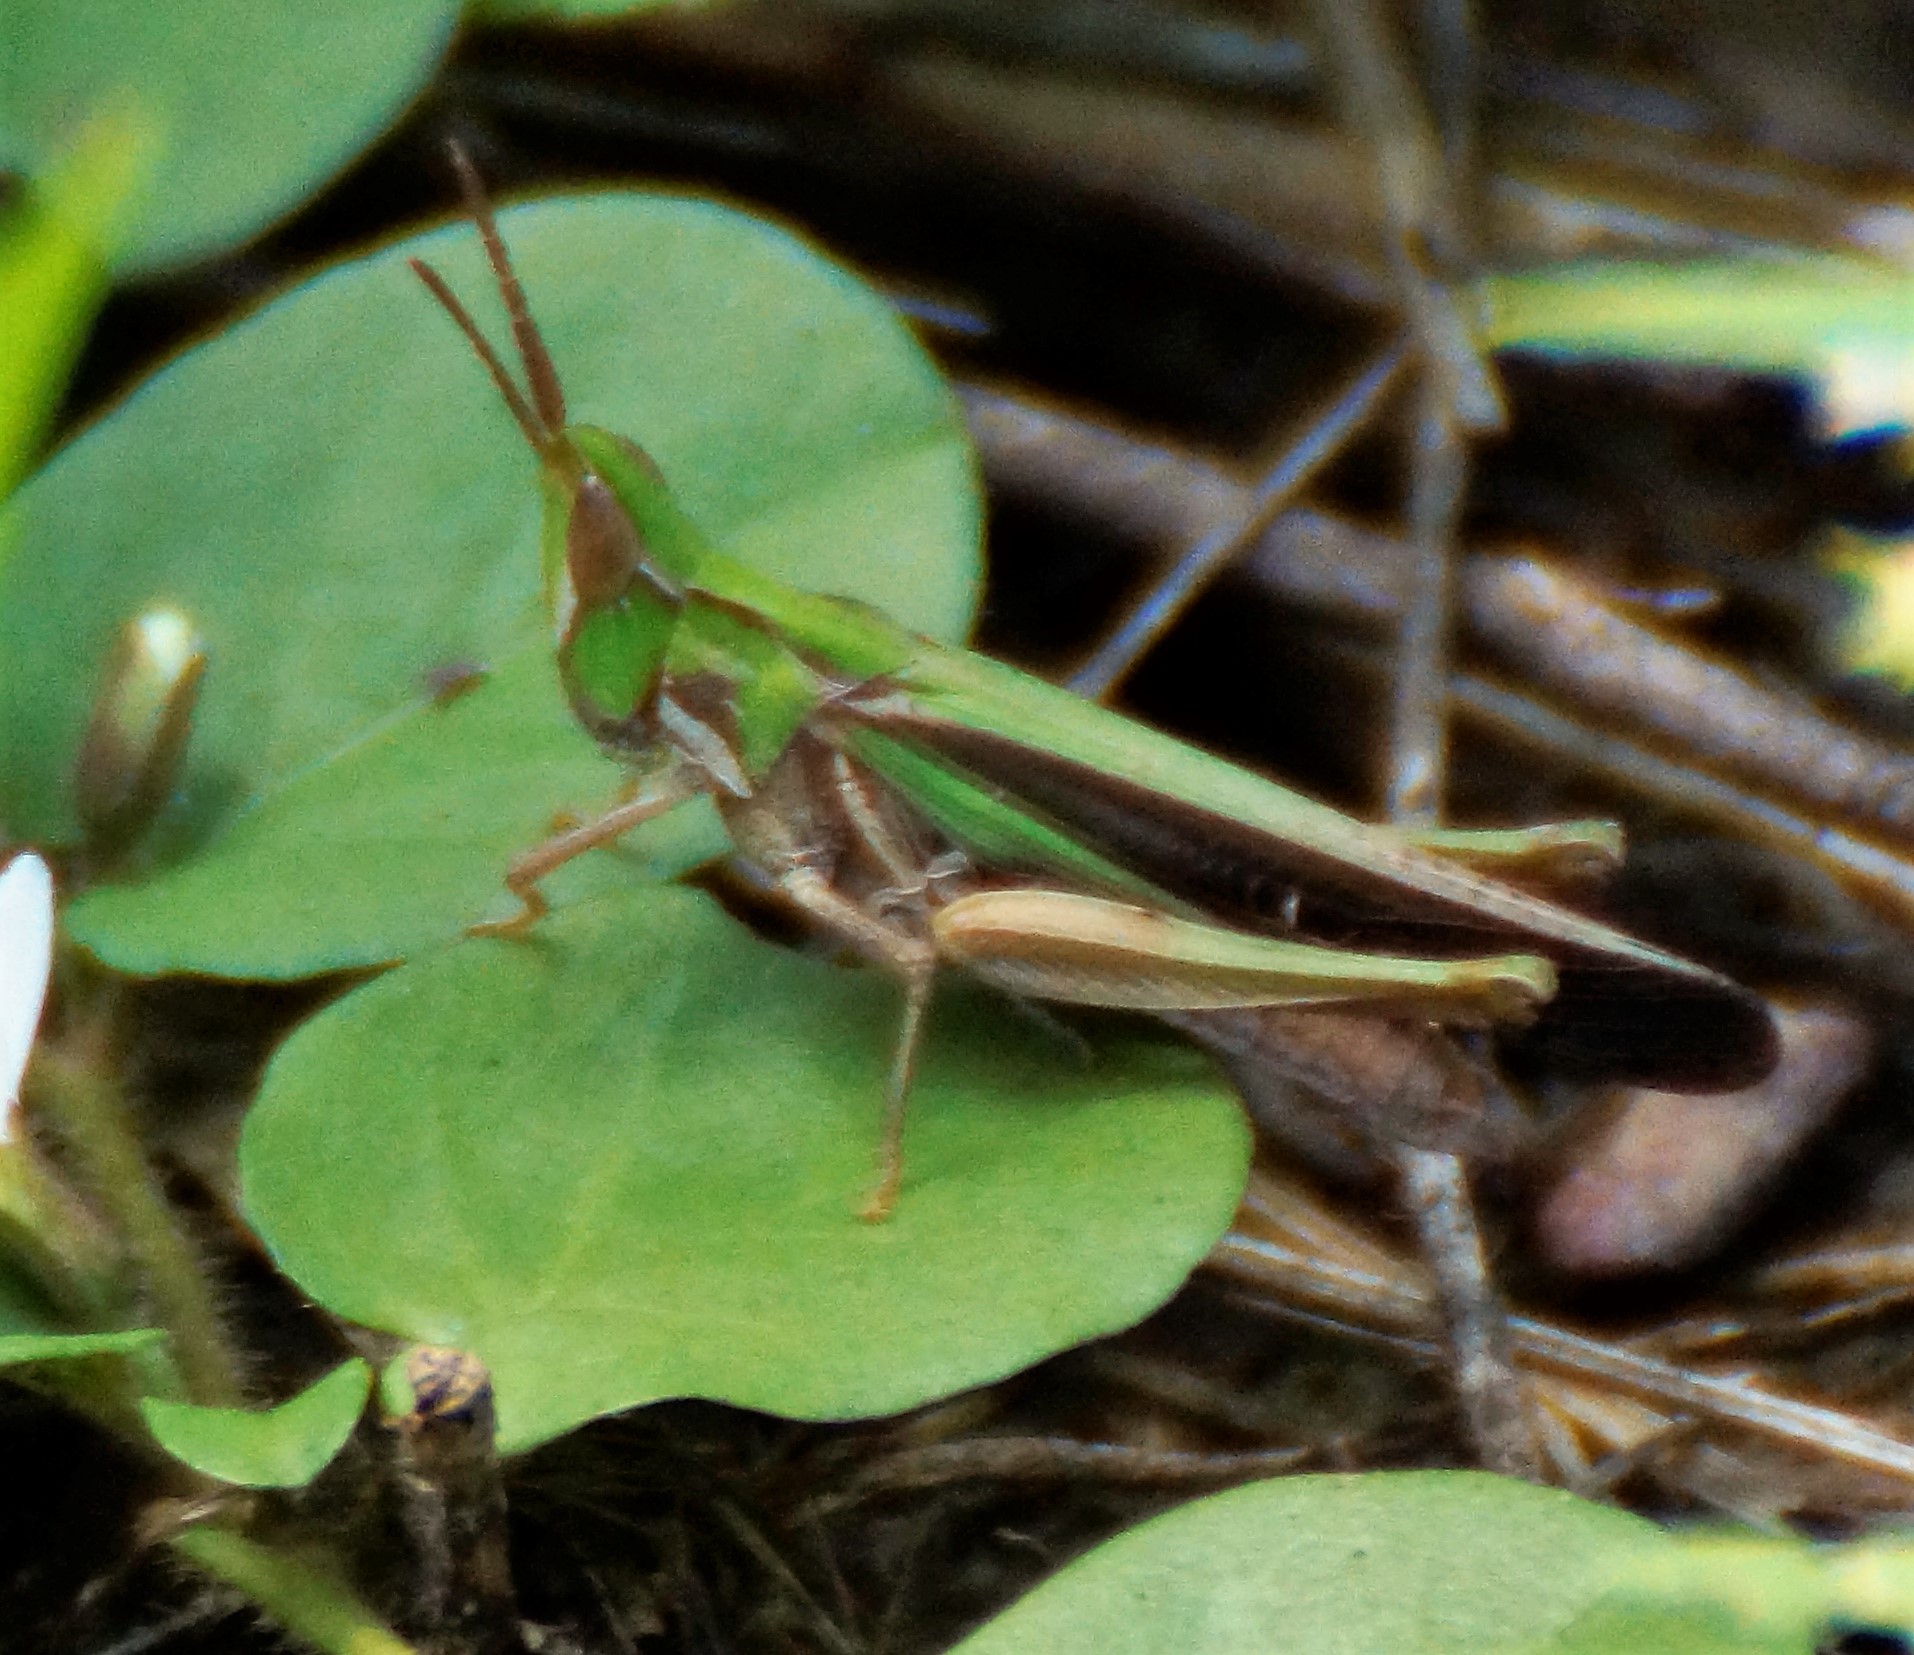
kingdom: Animalia
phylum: Arthropoda
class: Insecta
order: Orthoptera
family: Acrididae
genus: Froggattina
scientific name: Froggattina australis
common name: Froggatt's buzzer
